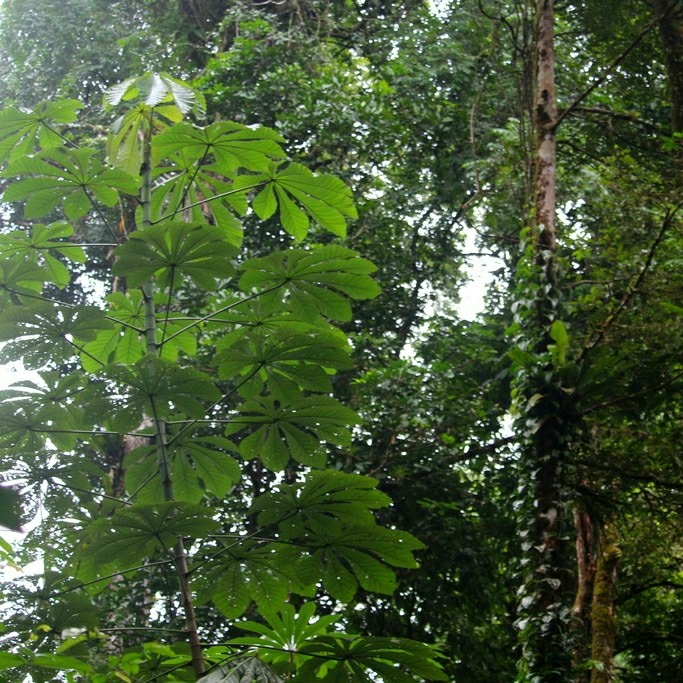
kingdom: Plantae
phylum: Tracheophyta
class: Magnoliopsida
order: Rosales
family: Urticaceae
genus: Cecropia
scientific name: Cecropia palmata
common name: Trumpet tree
